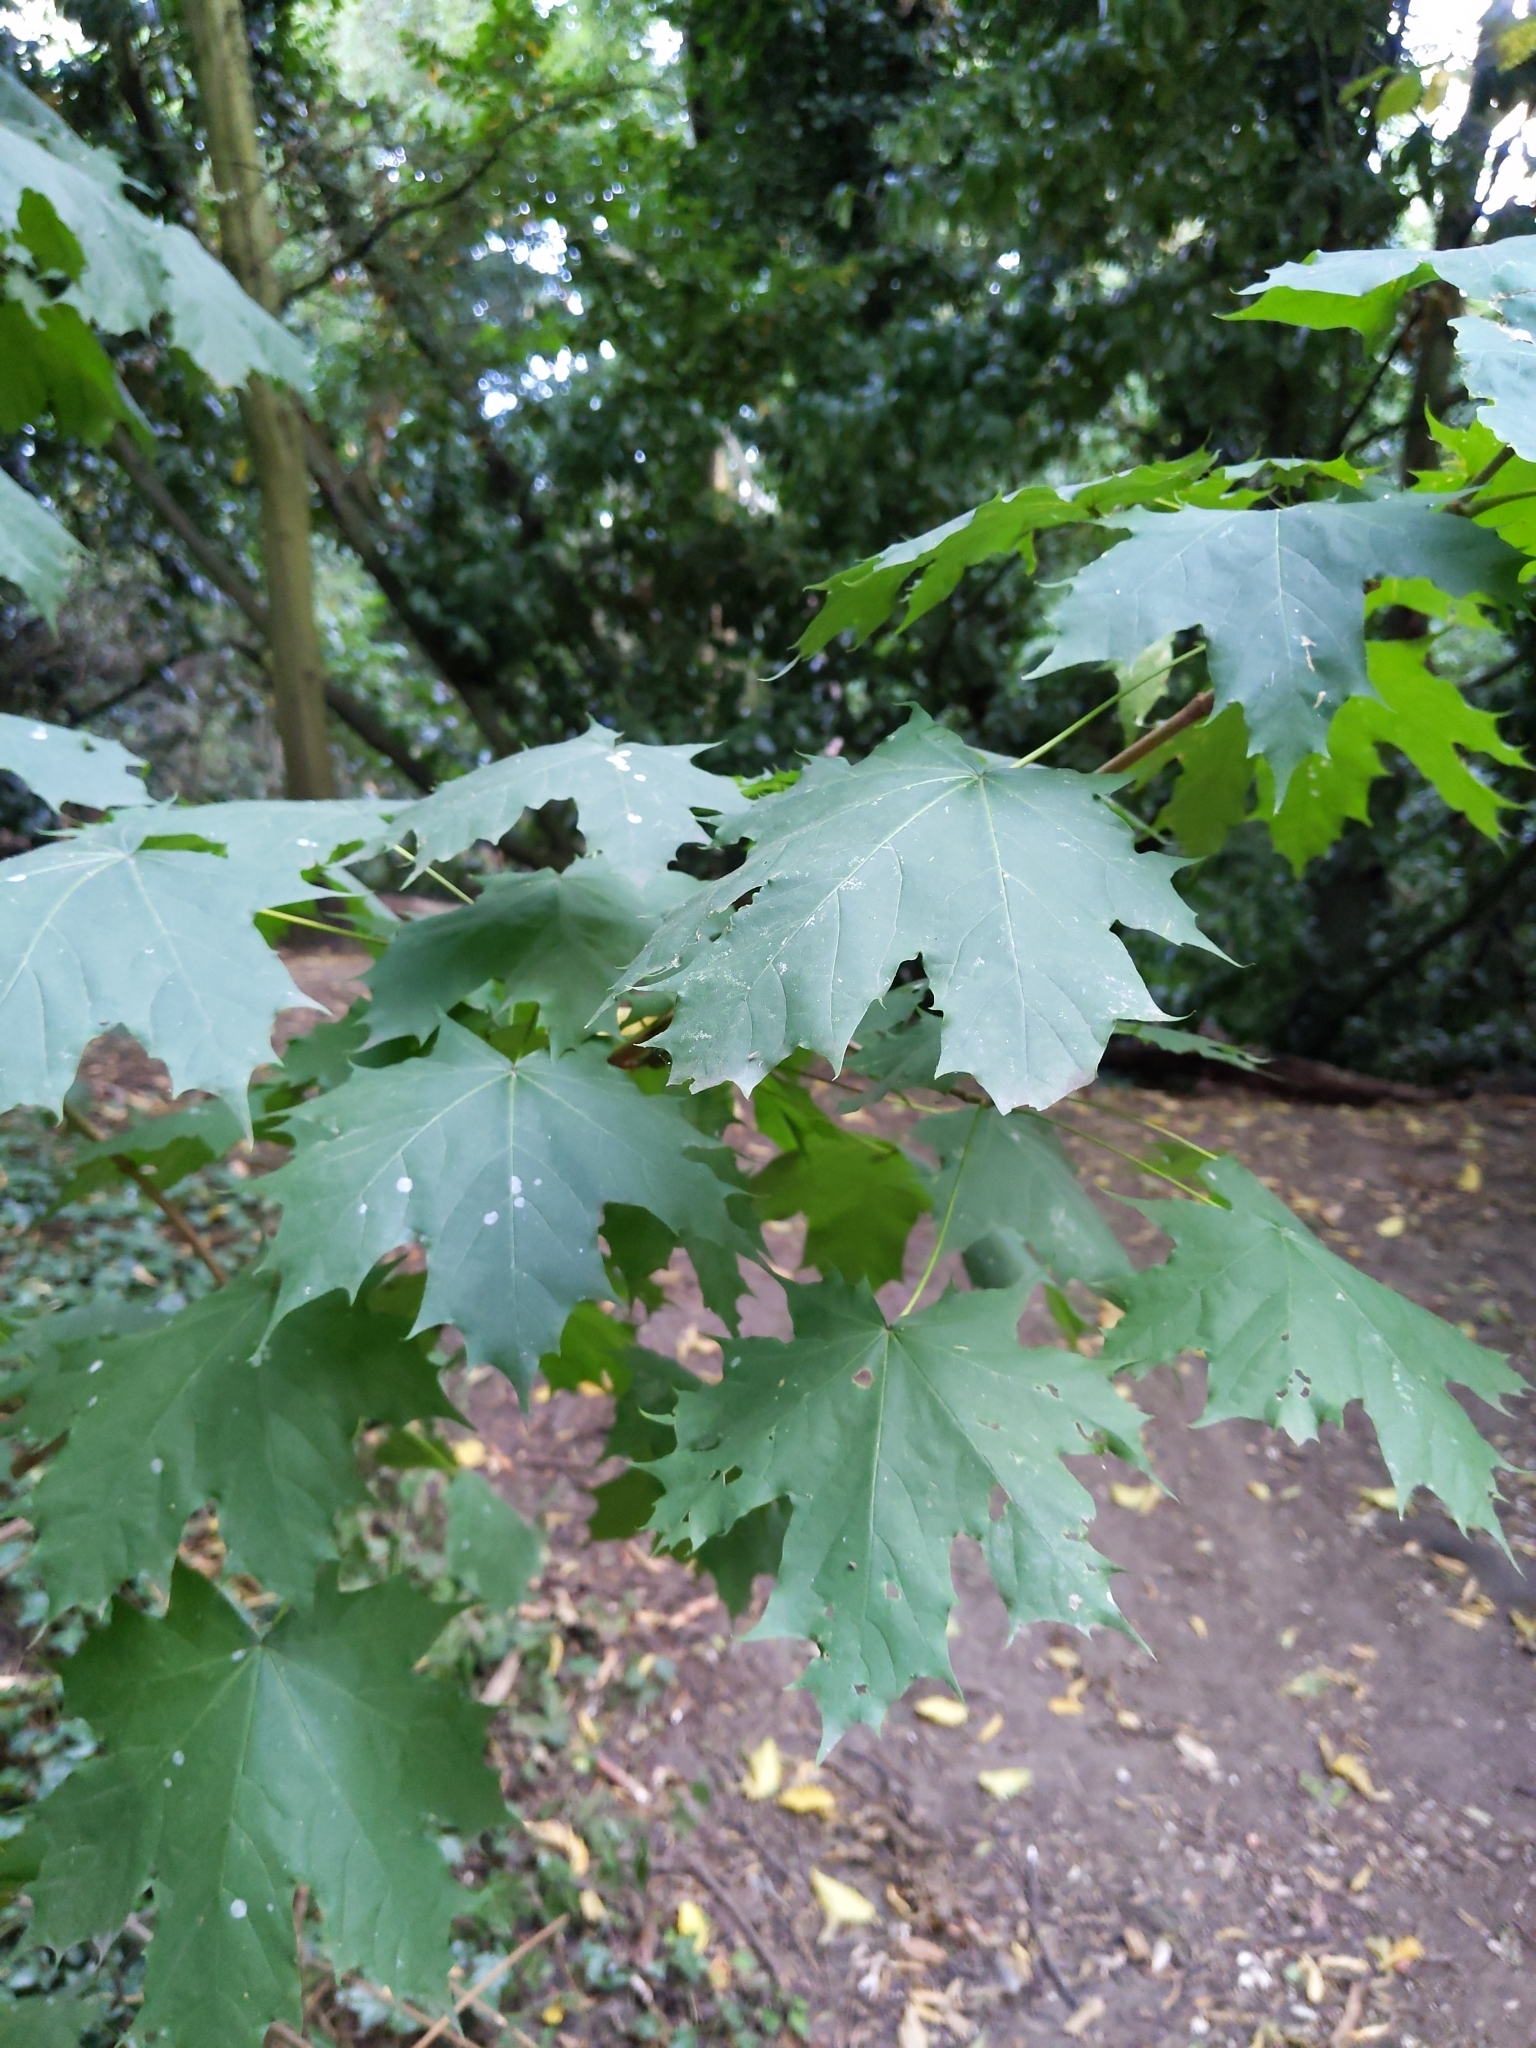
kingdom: Plantae
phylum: Tracheophyta
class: Magnoliopsida
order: Sapindales
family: Sapindaceae
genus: Acer
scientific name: Acer platanoides
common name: Norway maple
